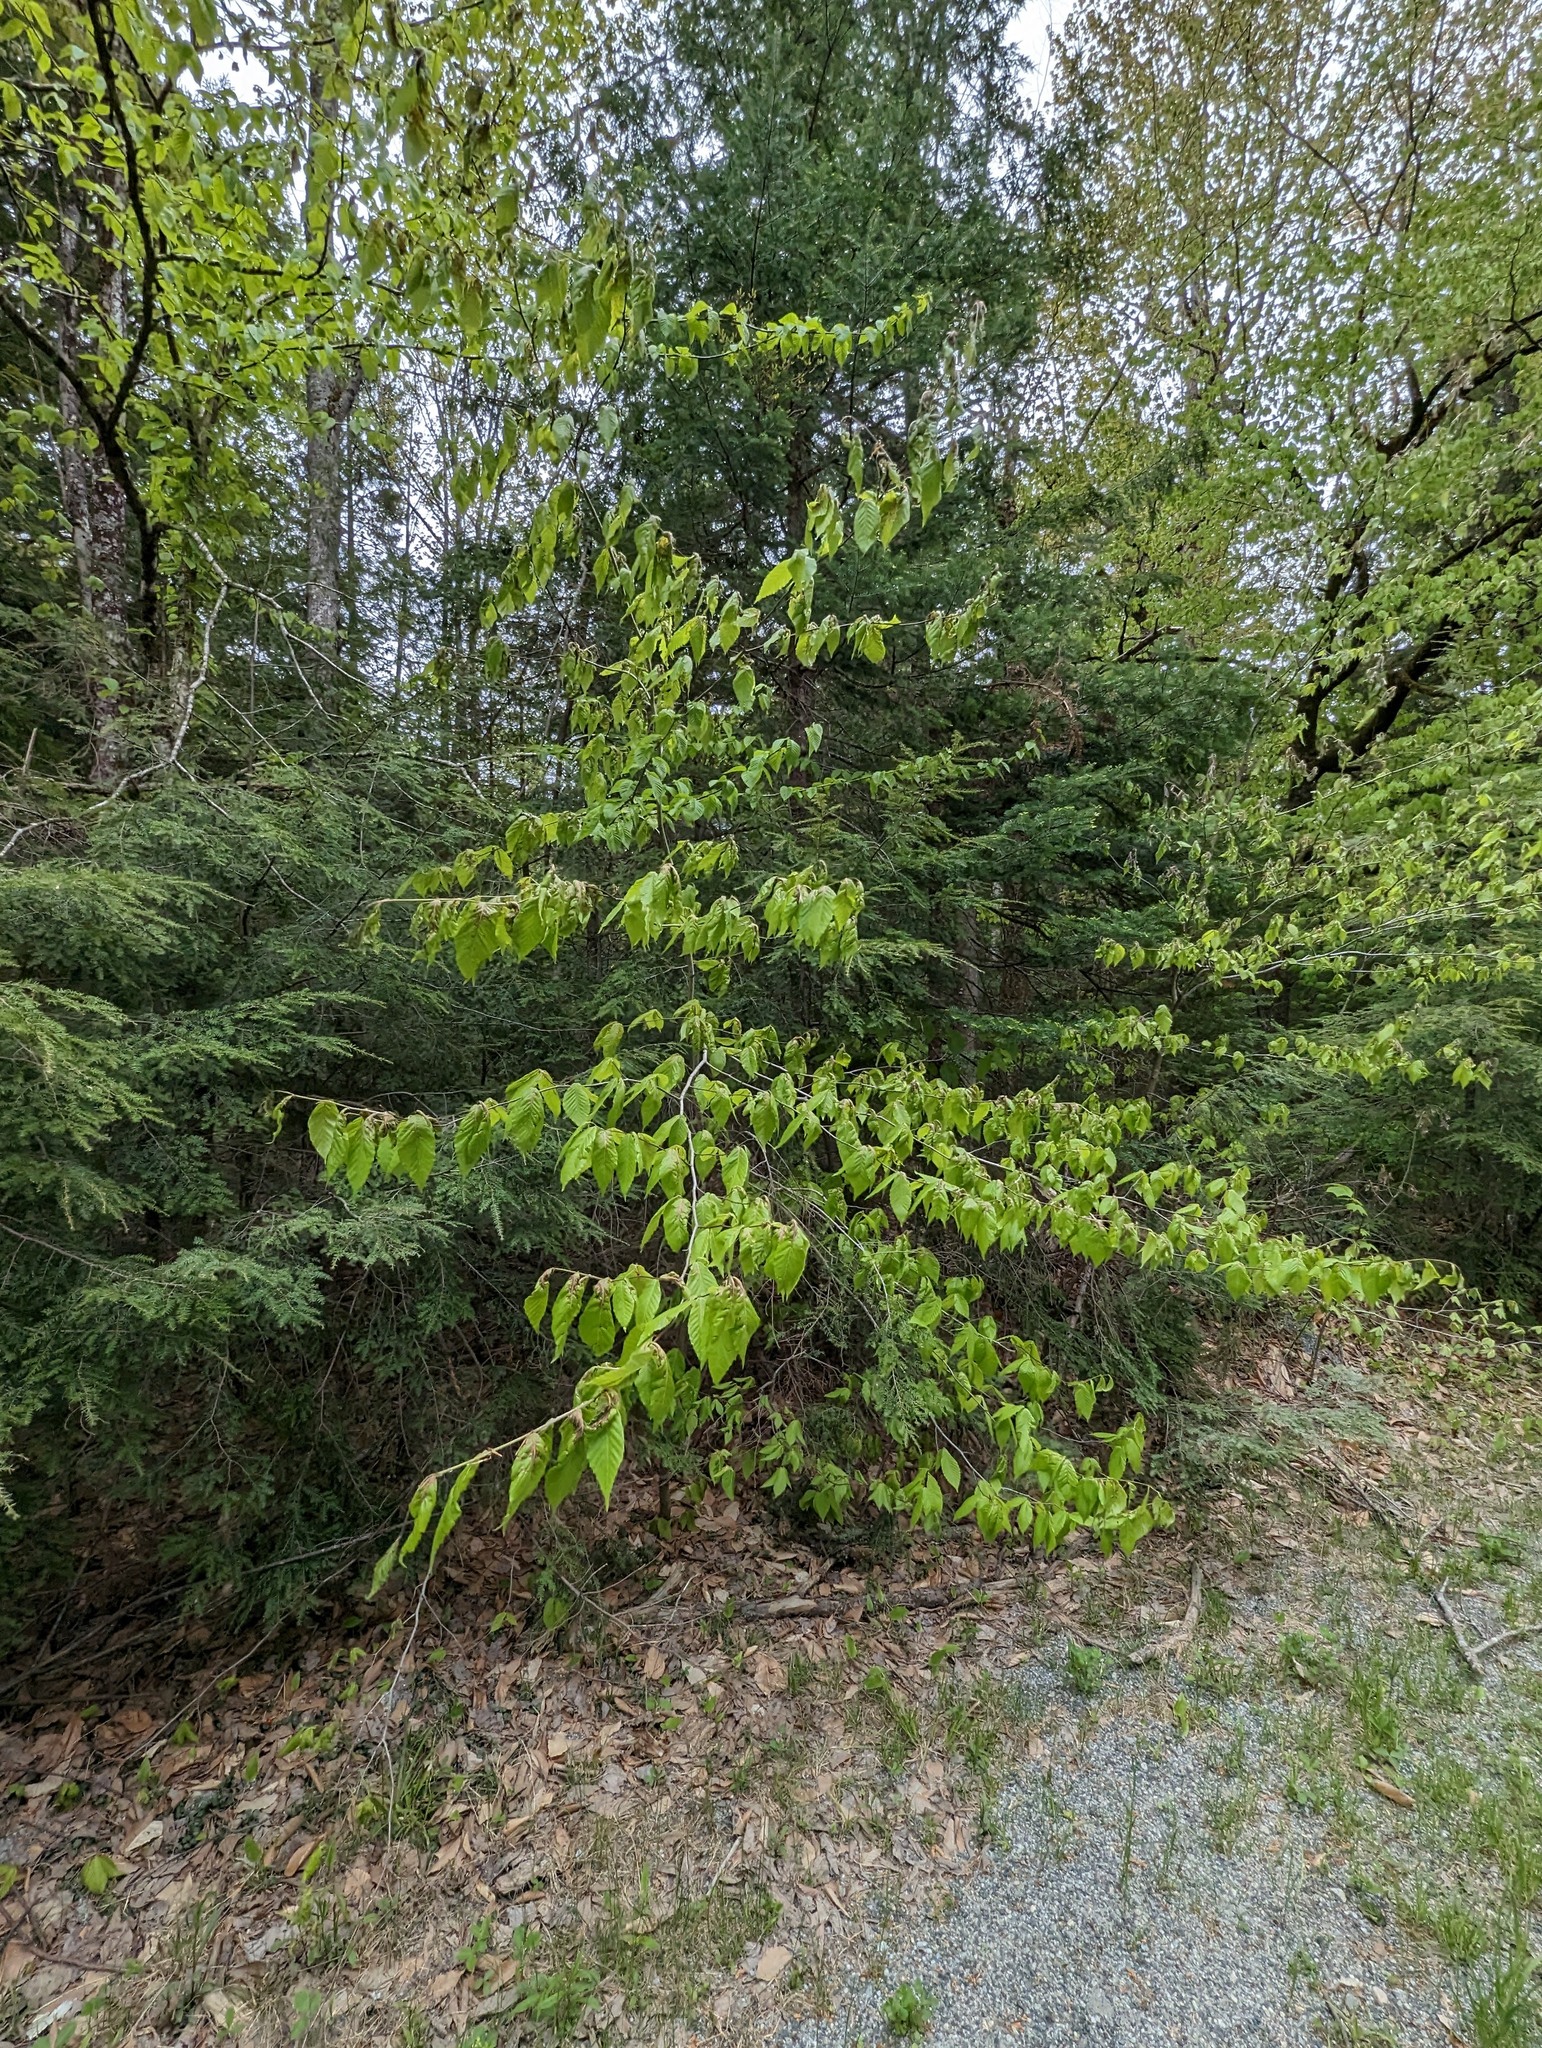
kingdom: Plantae
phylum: Tracheophyta
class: Magnoliopsida
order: Fagales
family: Fagaceae
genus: Fagus
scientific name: Fagus grandifolia
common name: American beech
